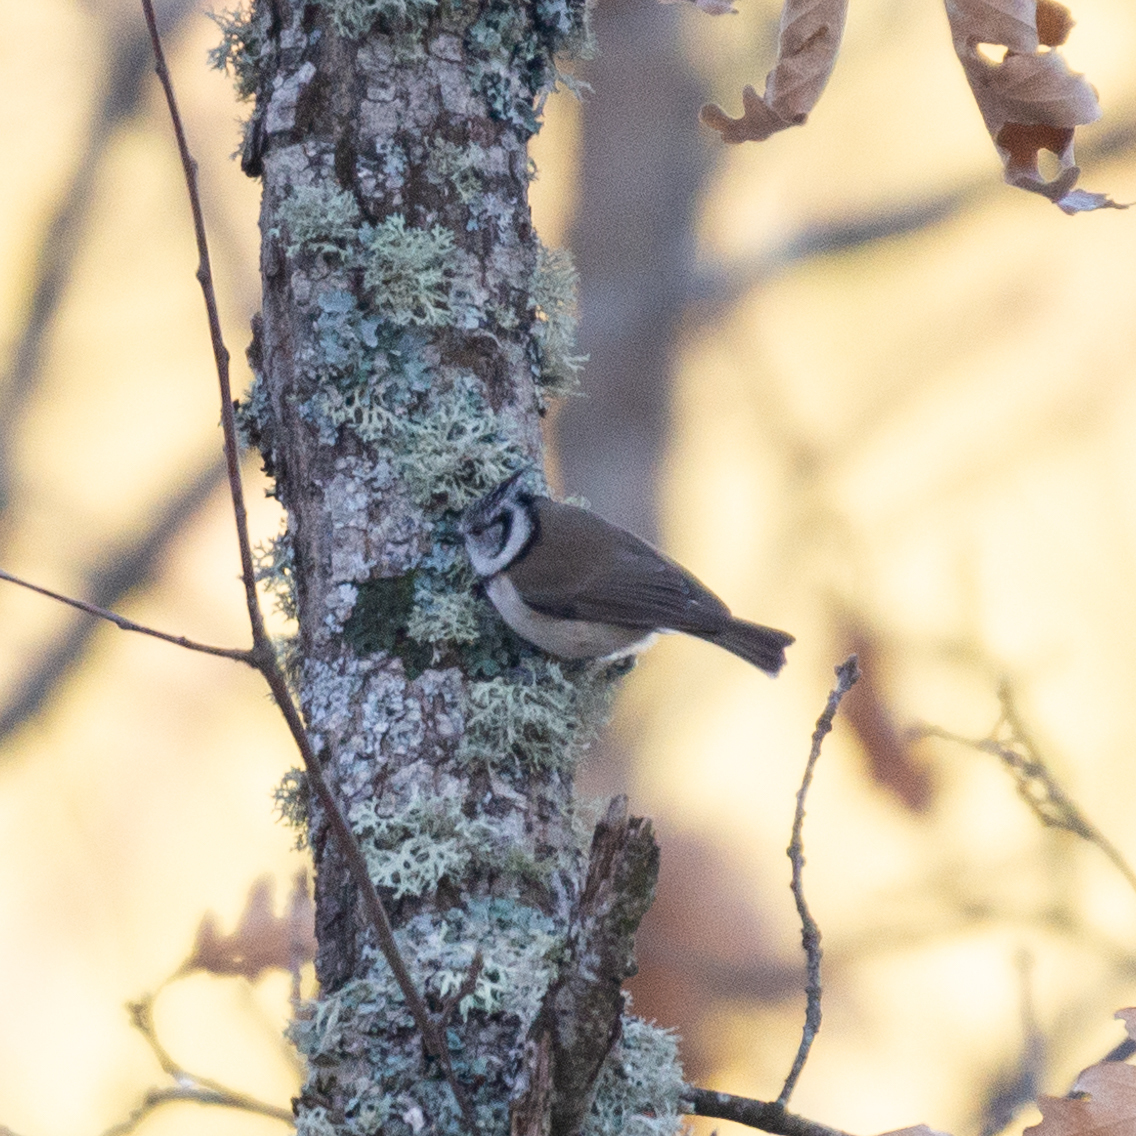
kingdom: Animalia
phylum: Chordata
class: Aves
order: Passeriformes
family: Paridae
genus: Lophophanes
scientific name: Lophophanes cristatus
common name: European crested tit
